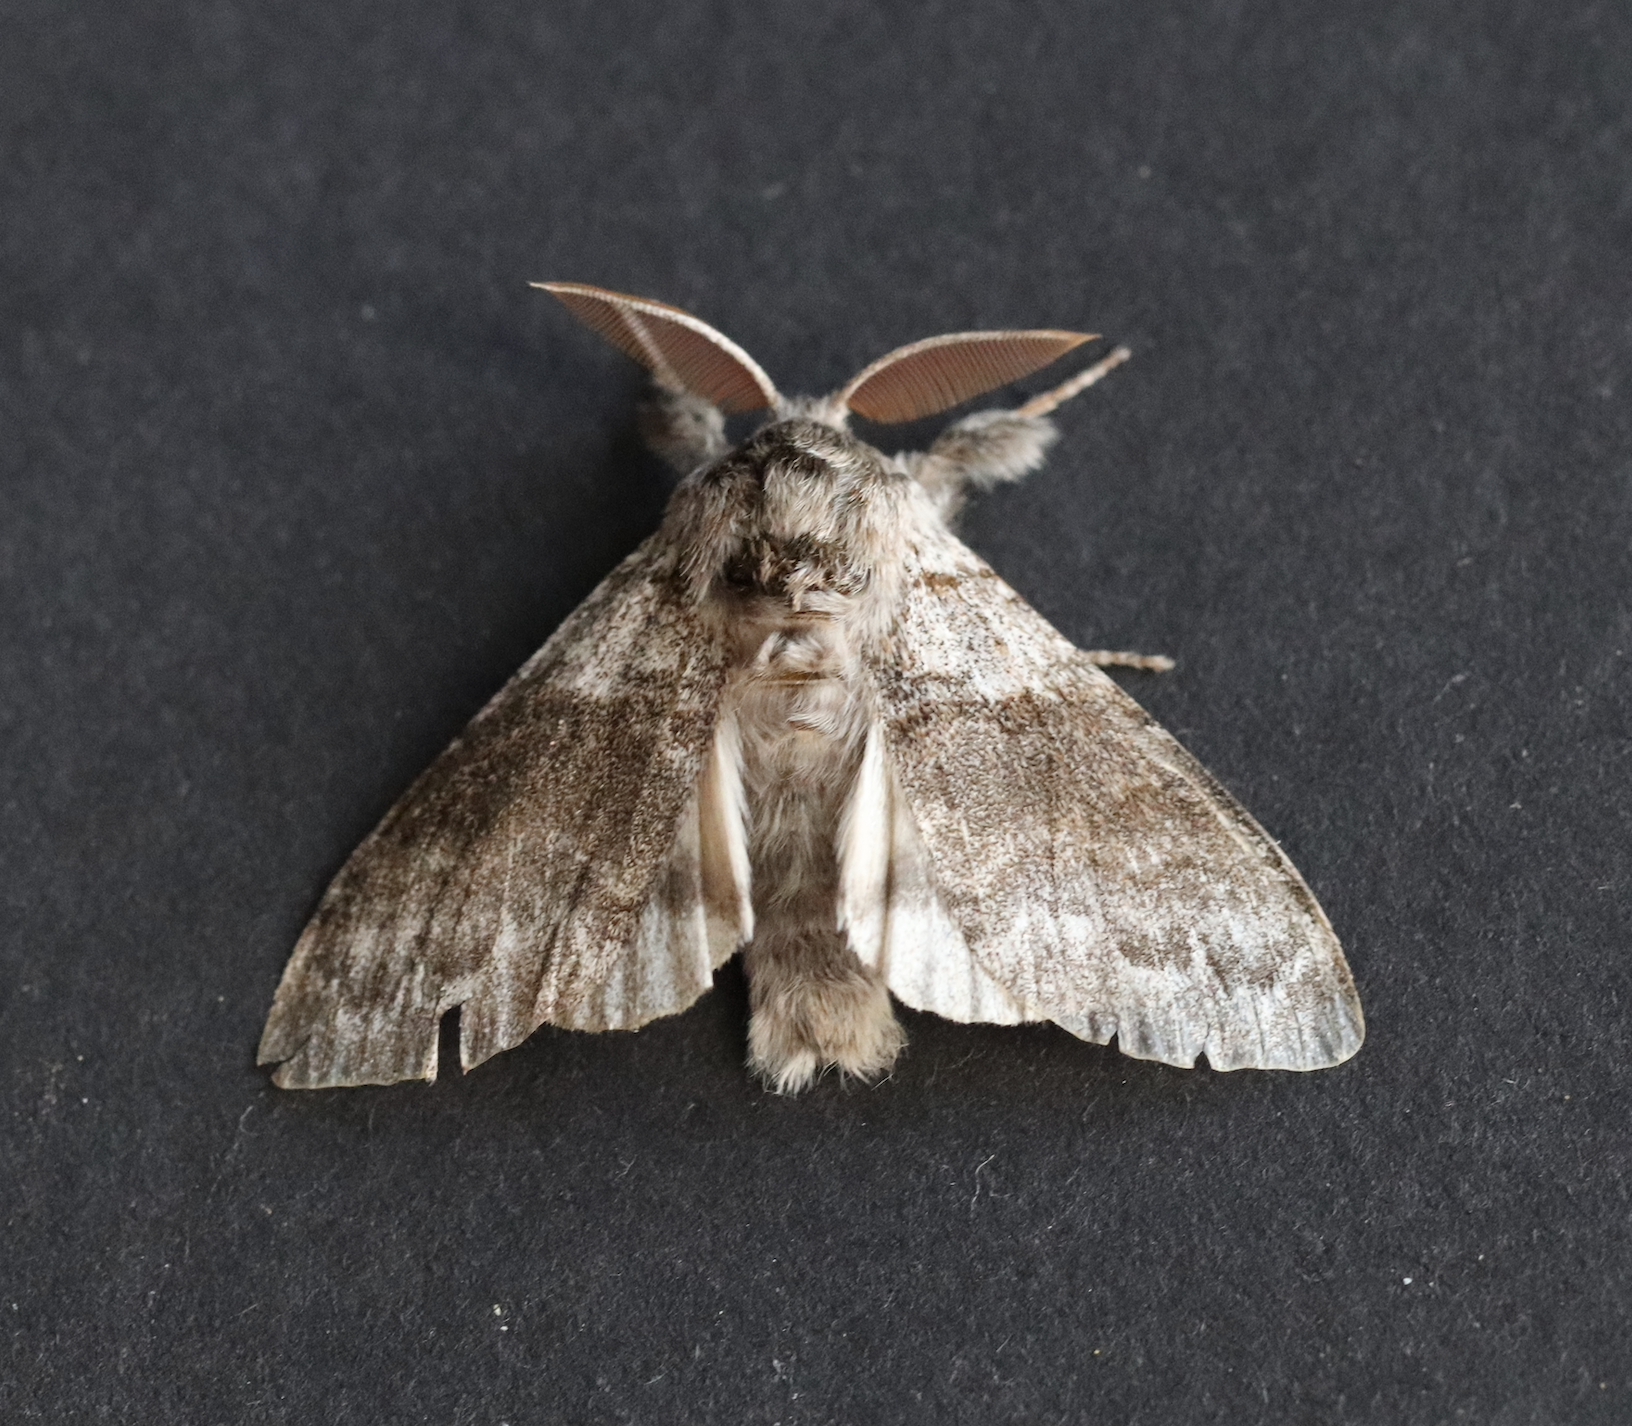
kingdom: Animalia
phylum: Arthropoda
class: Insecta
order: Lepidoptera
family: Erebidae
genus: Calliteara
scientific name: Calliteara pudibunda
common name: Pale tussock
